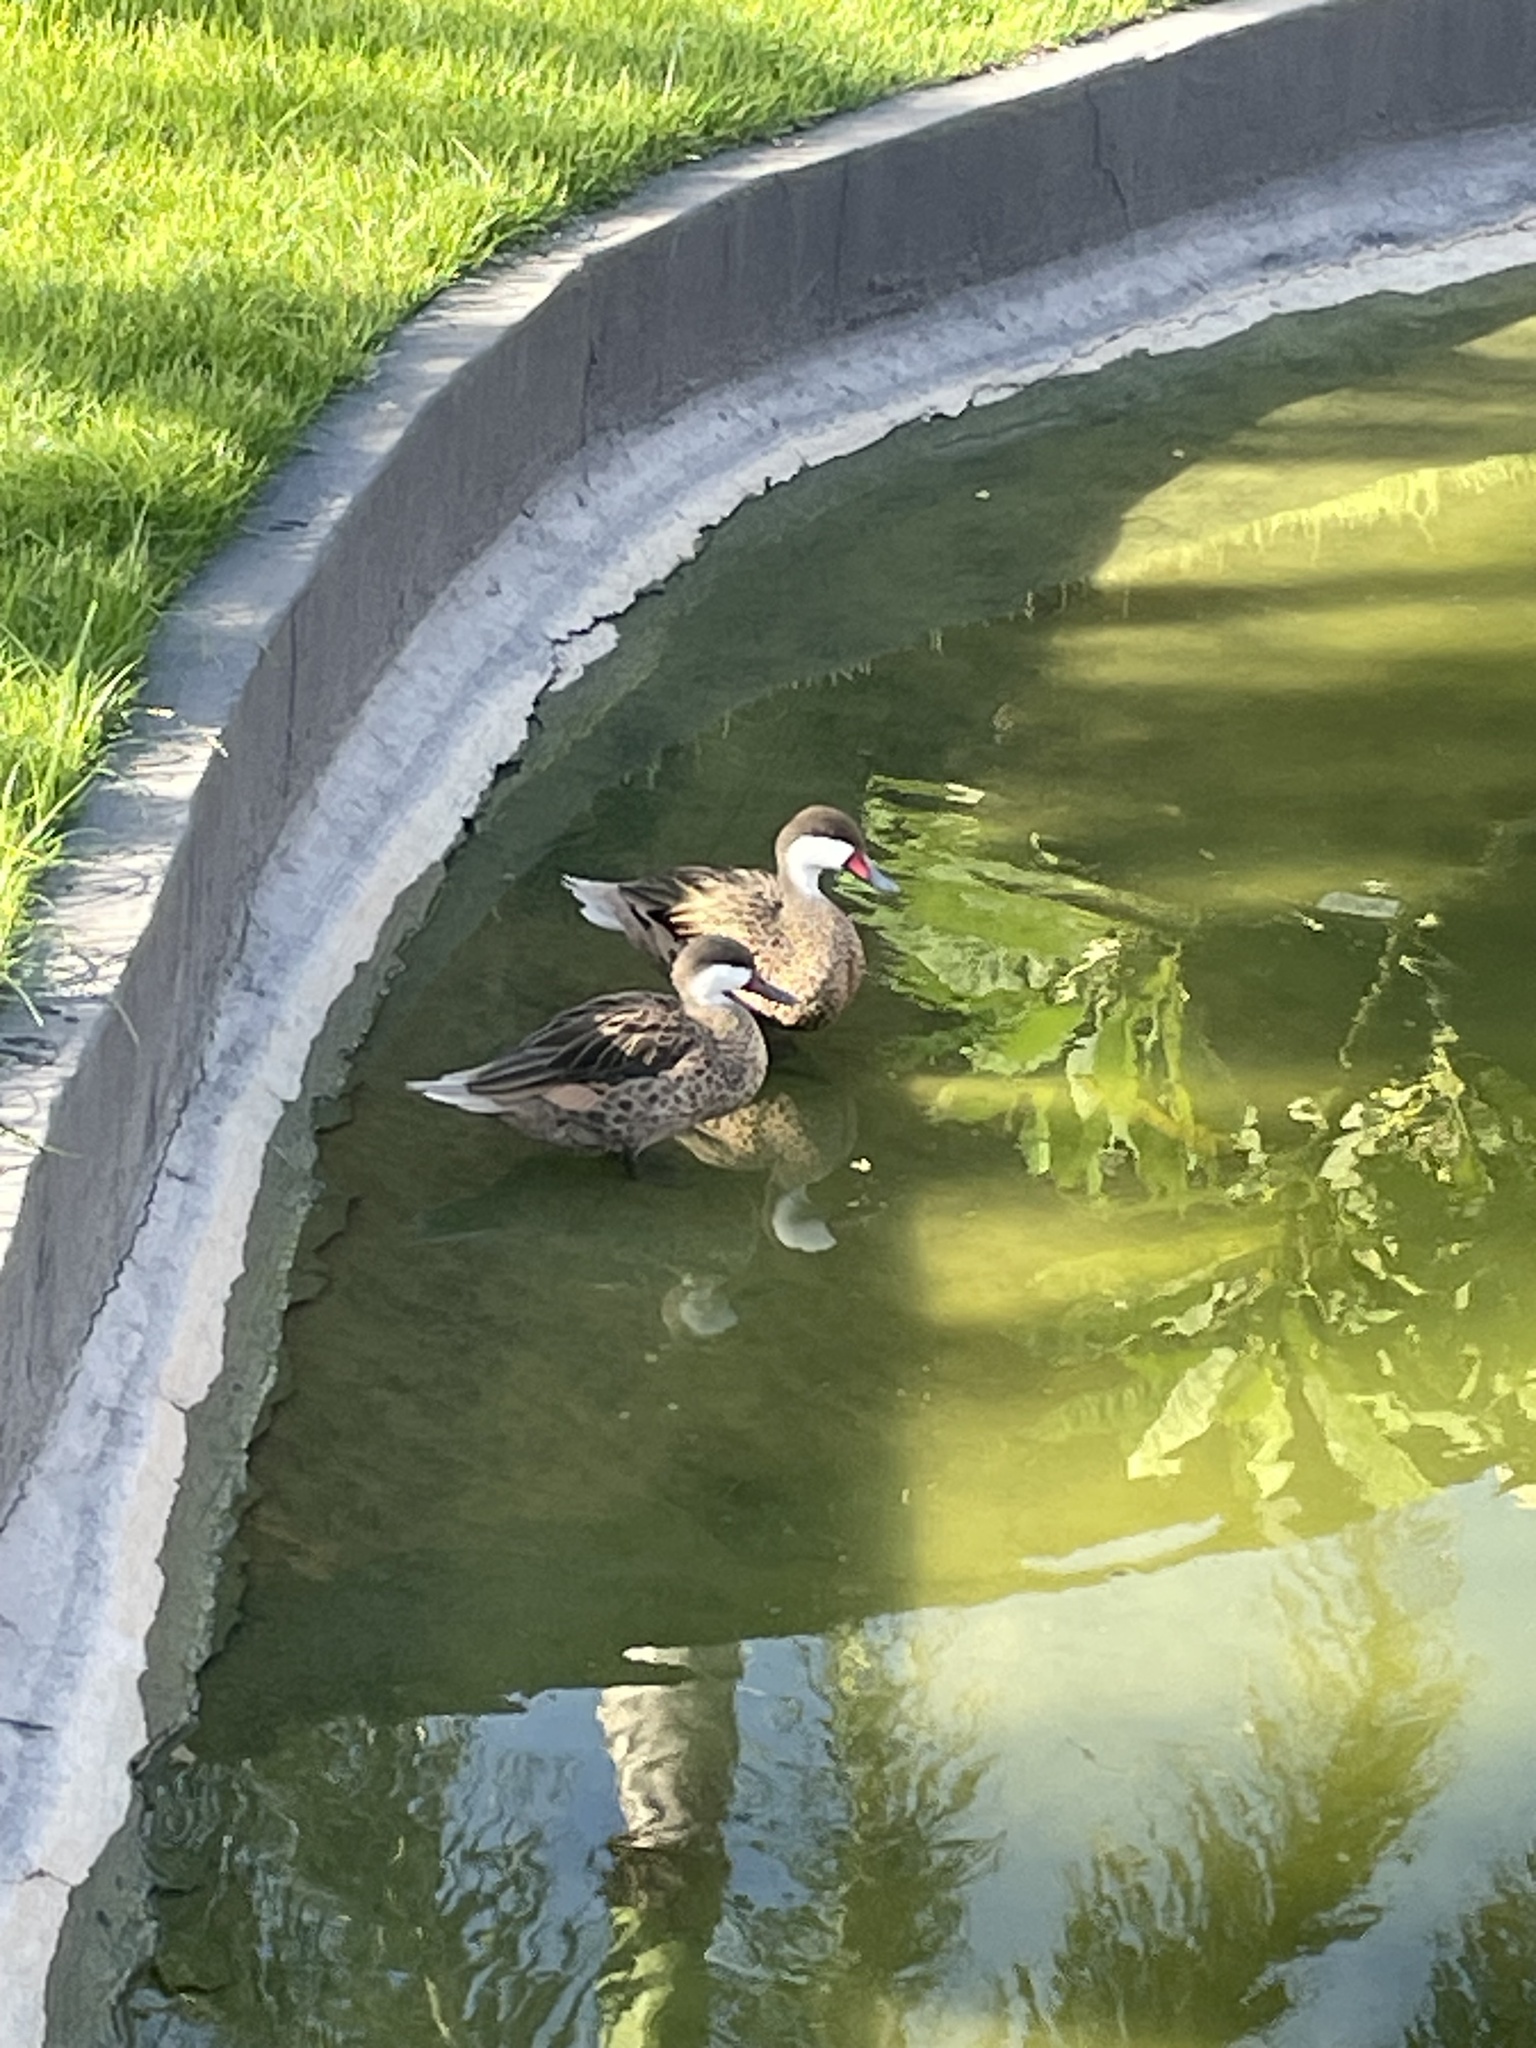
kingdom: Animalia
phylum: Chordata
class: Aves
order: Anseriformes
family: Anatidae
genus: Anas
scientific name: Anas bahamensis
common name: White-cheeked pintail
